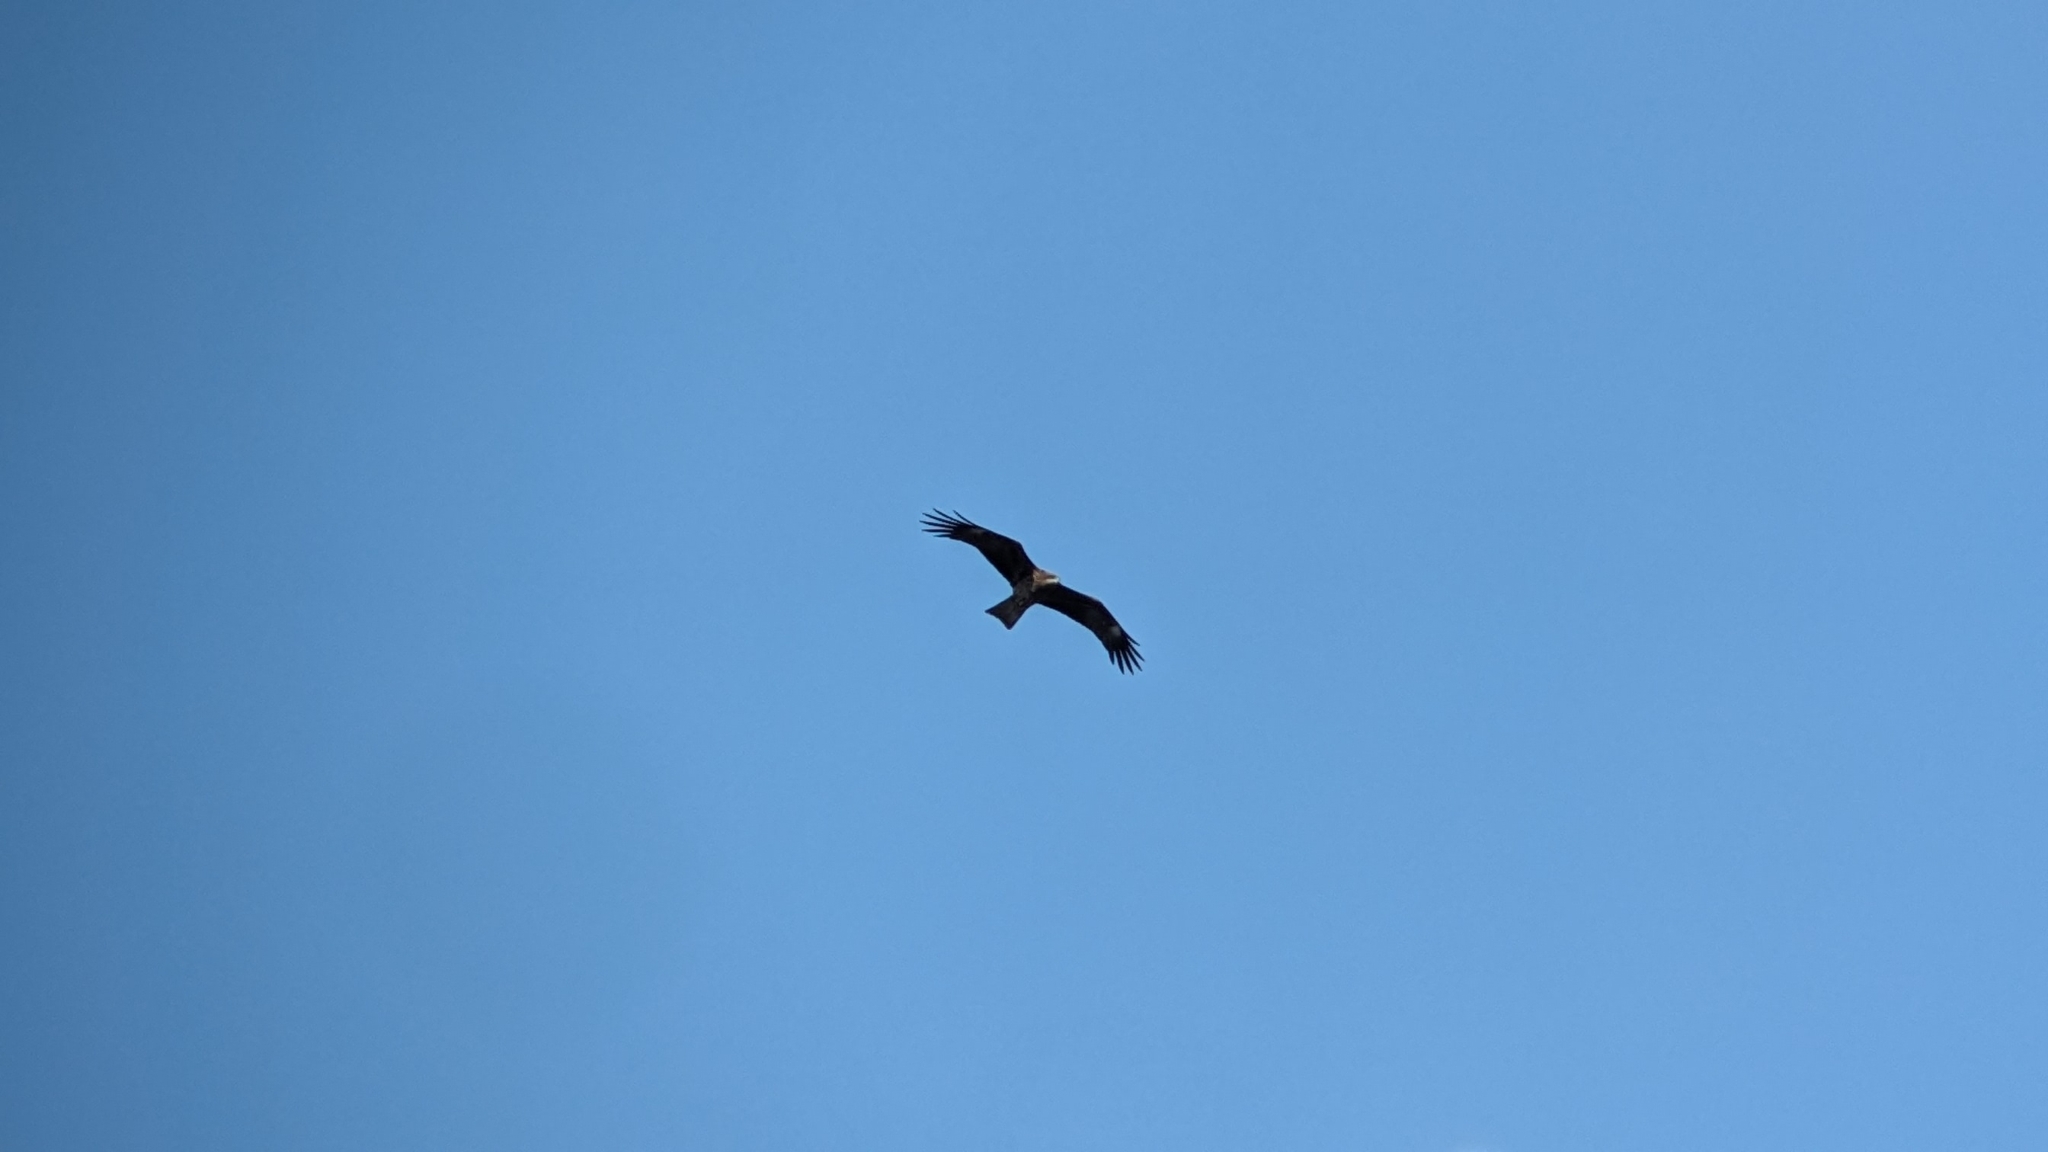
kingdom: Animalia
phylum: Chordata
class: Aves
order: Accipitriformes
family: Accipitridae
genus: Milvus
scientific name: Milvus migrans
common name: Black kite
